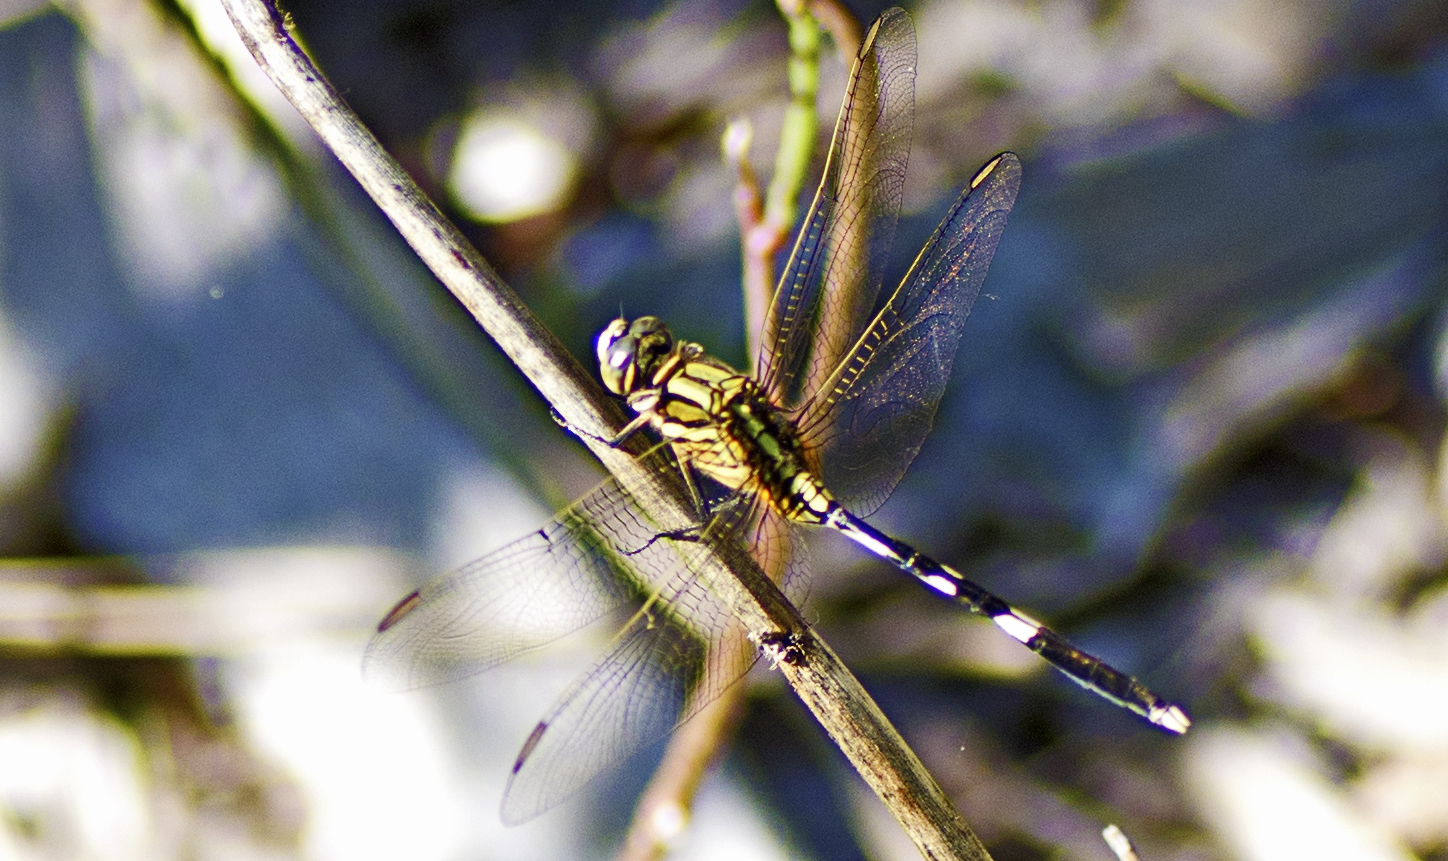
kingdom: Animalia
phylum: Arthropoda
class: Insecta
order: Odonata
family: Libellulidae
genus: Orthetrum
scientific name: Orthetrum sabina
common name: Slender skimmer
